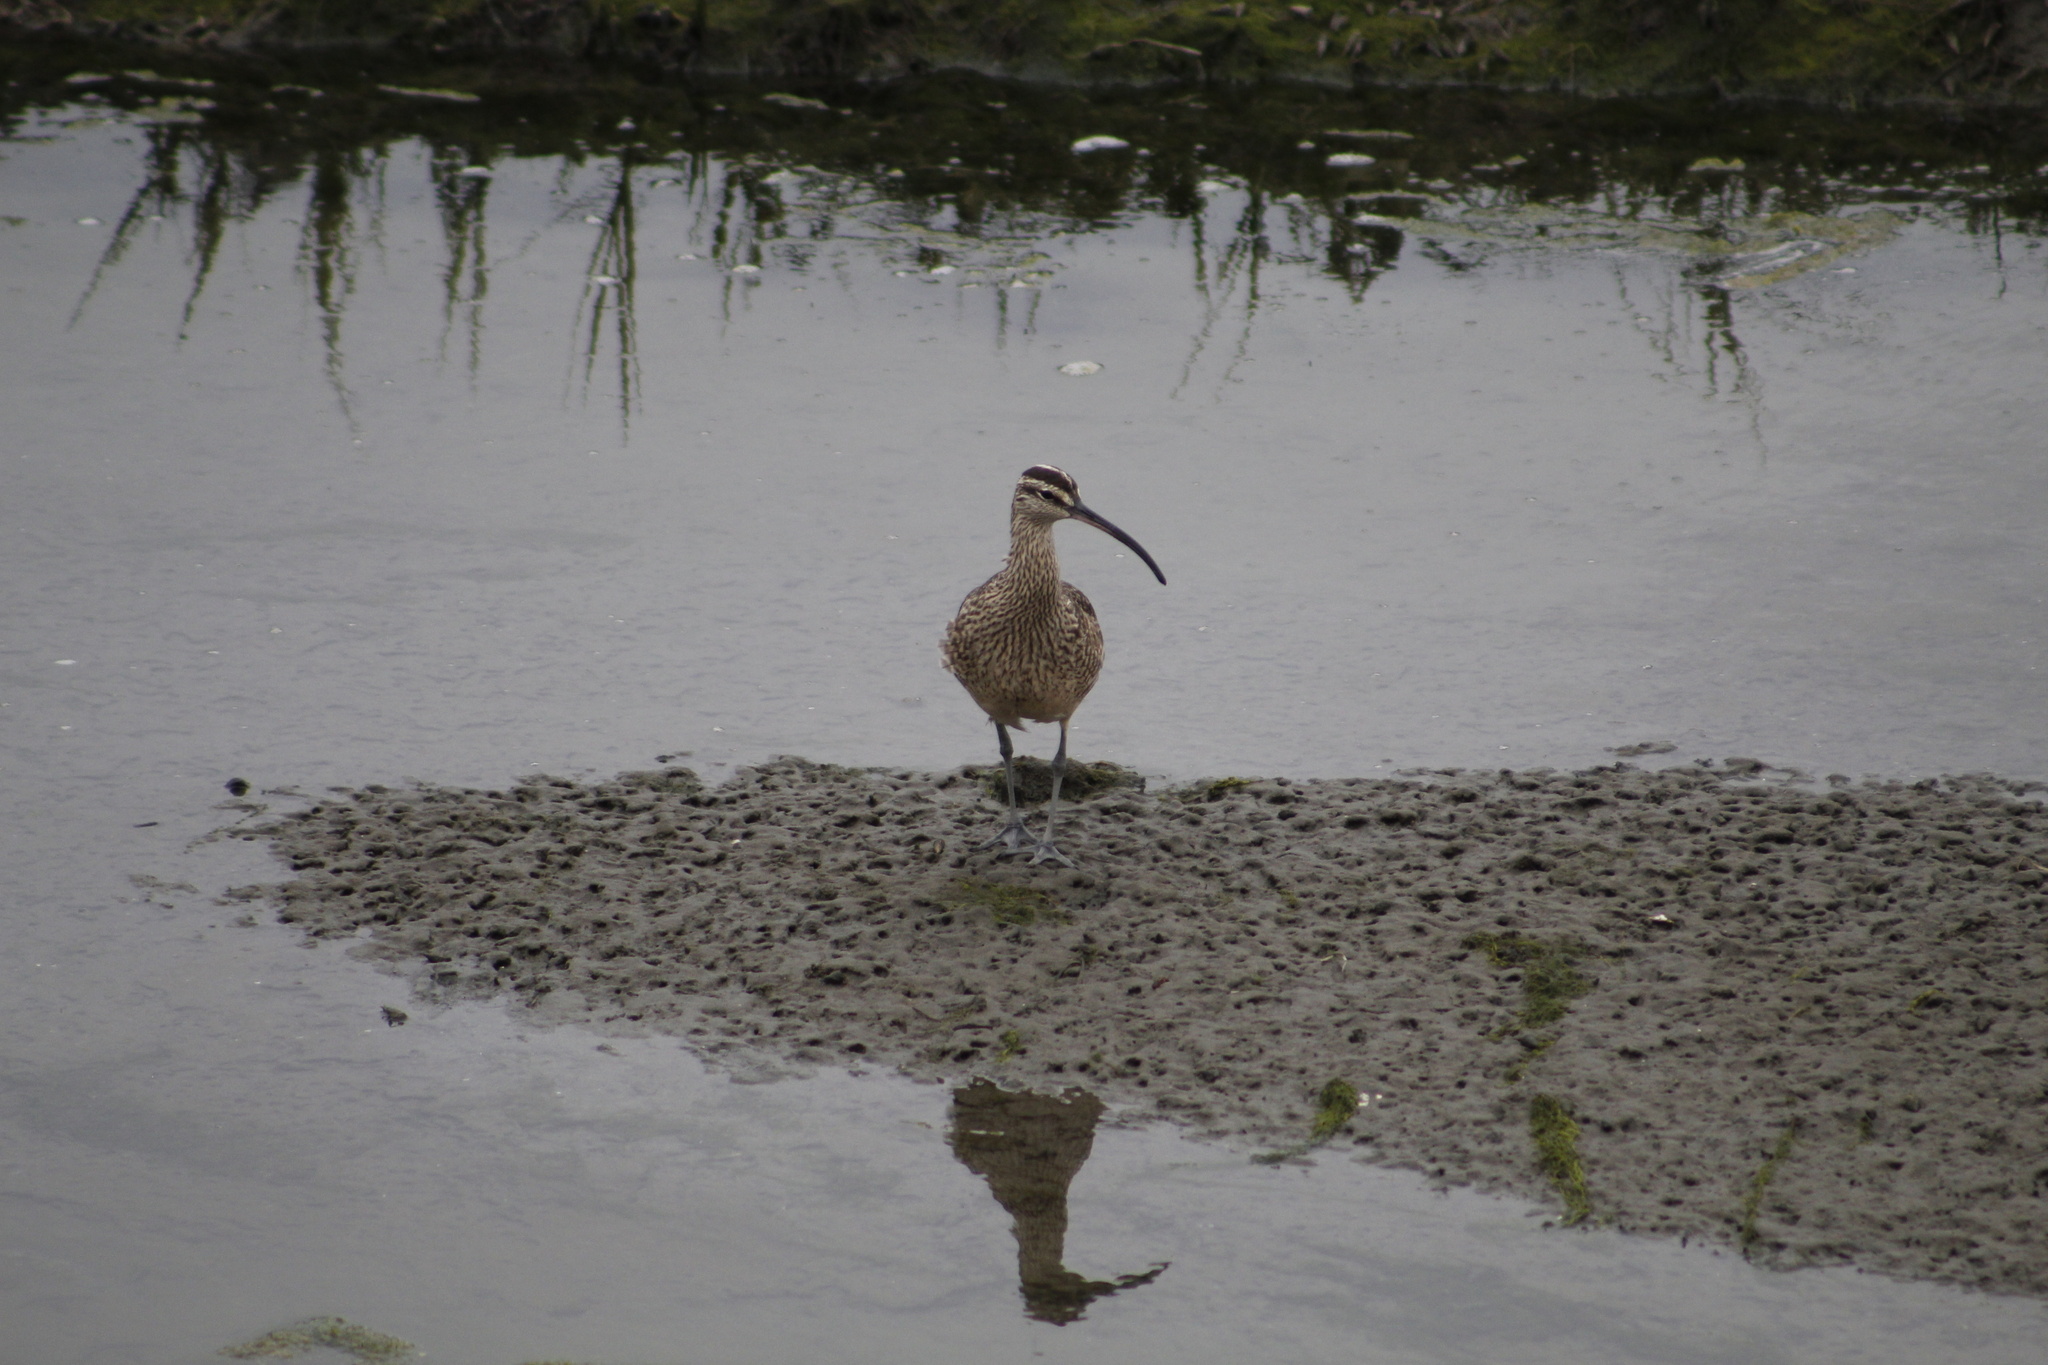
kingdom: Animalia
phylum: Chordata
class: Aves
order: Charadriiformes
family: Scolopacidae
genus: Numenius
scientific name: Numenius phaeopus
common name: Whimbrel
